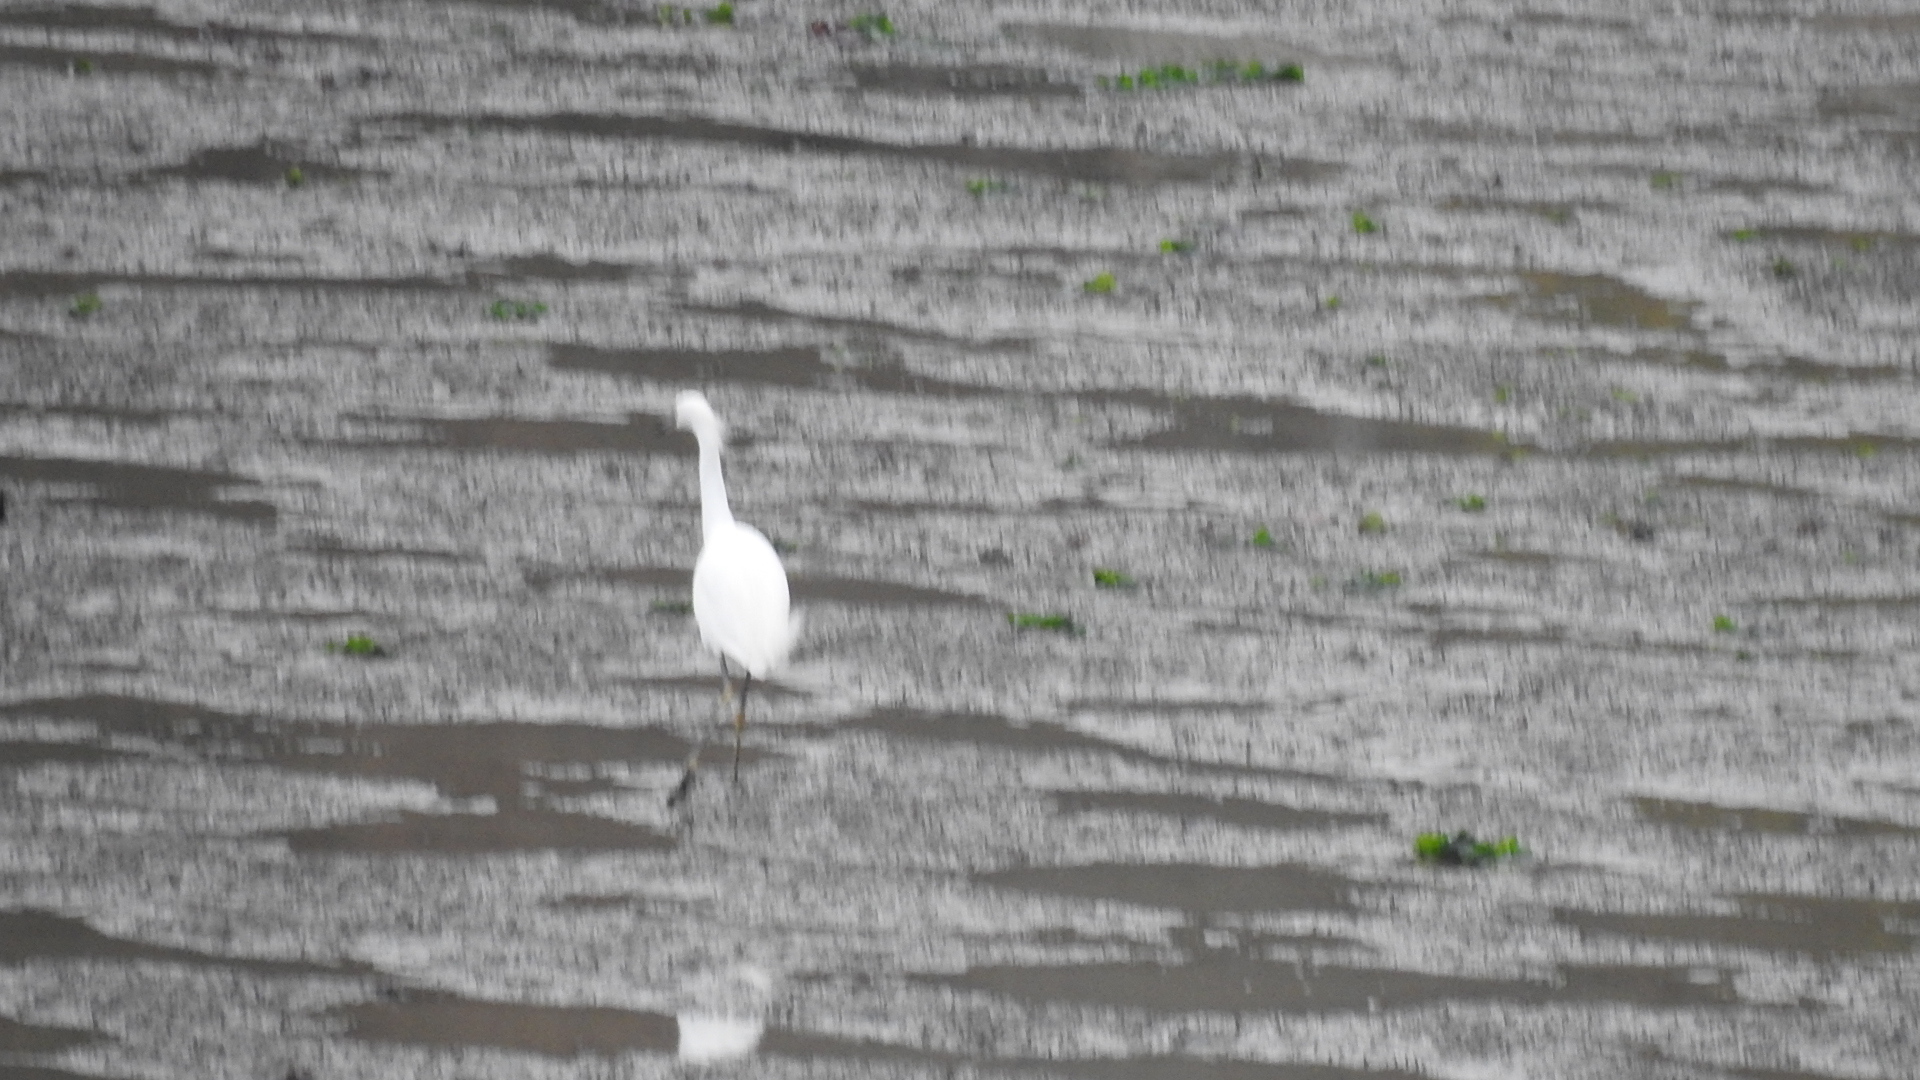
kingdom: Animalia
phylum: Chordata
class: Aves
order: Pelecaniformes
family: Ardeidae
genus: Egretta
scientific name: Egretta thula
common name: Snowy egret
